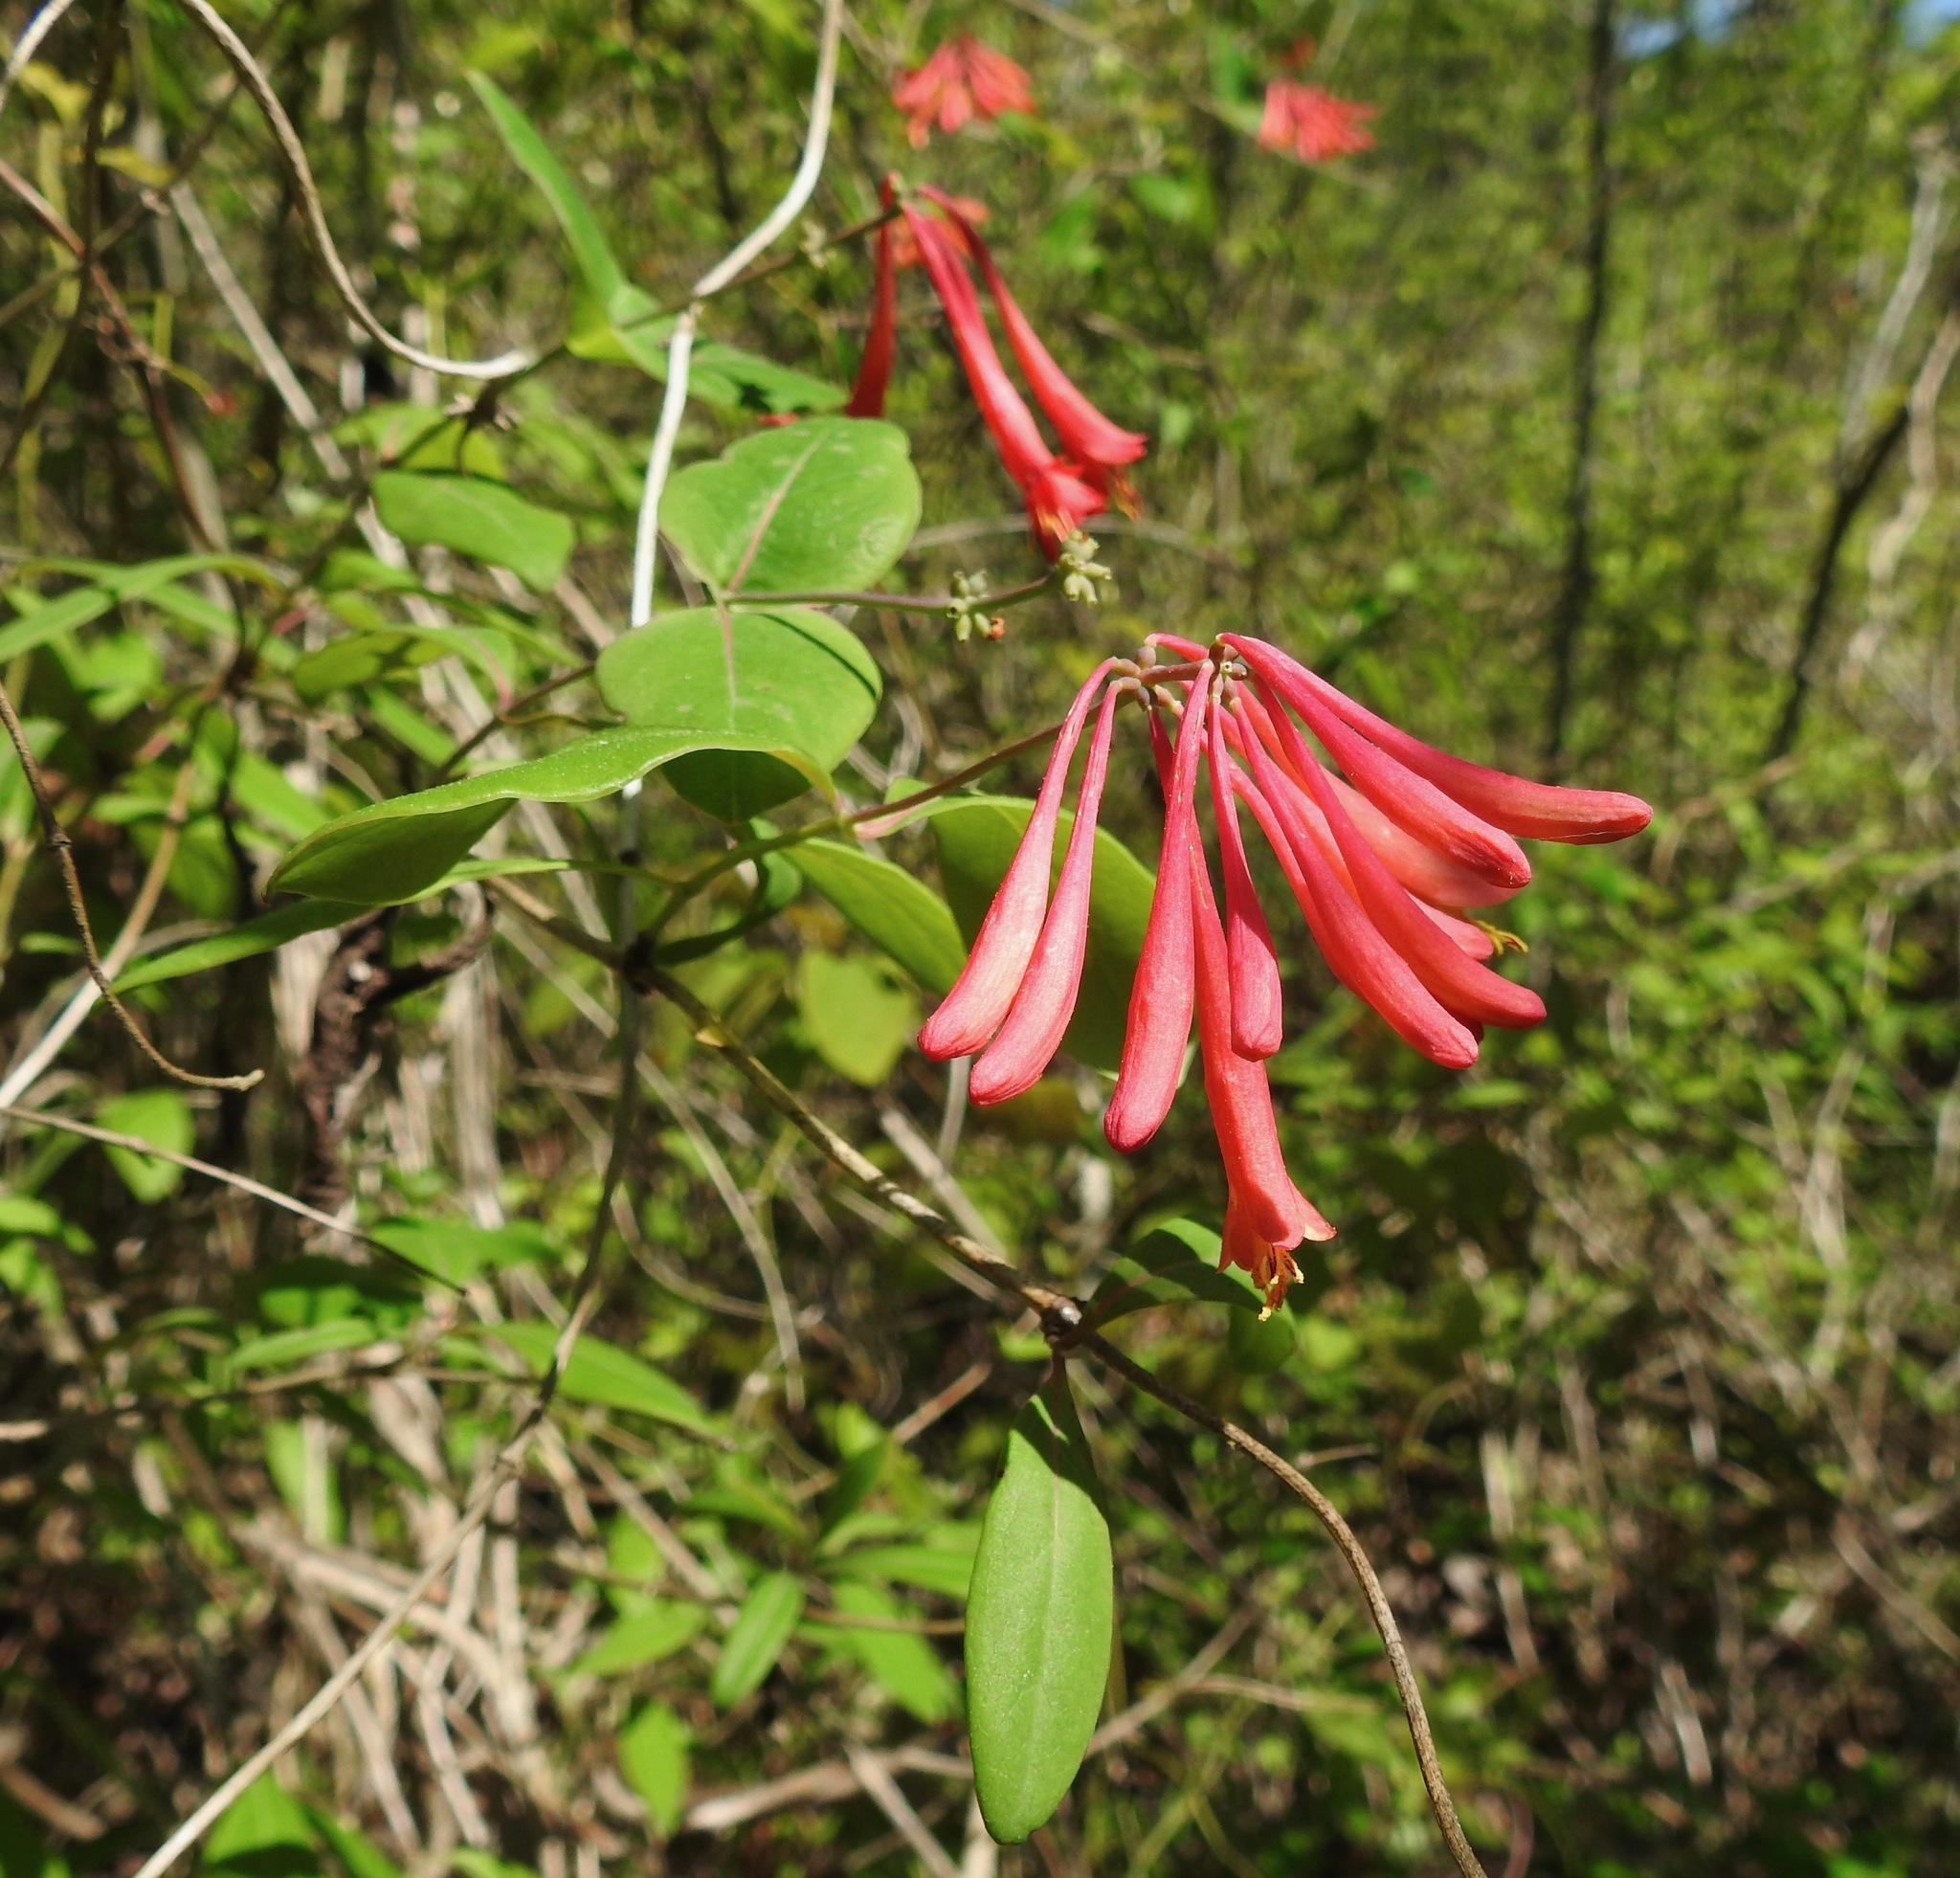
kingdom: Plantae
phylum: Tracheophyta
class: Magnoliopsida
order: Dipsacales
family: Caprifoliaceae
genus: Lonicera
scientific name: Lonicera sempervirens
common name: Coral honeysuckle
